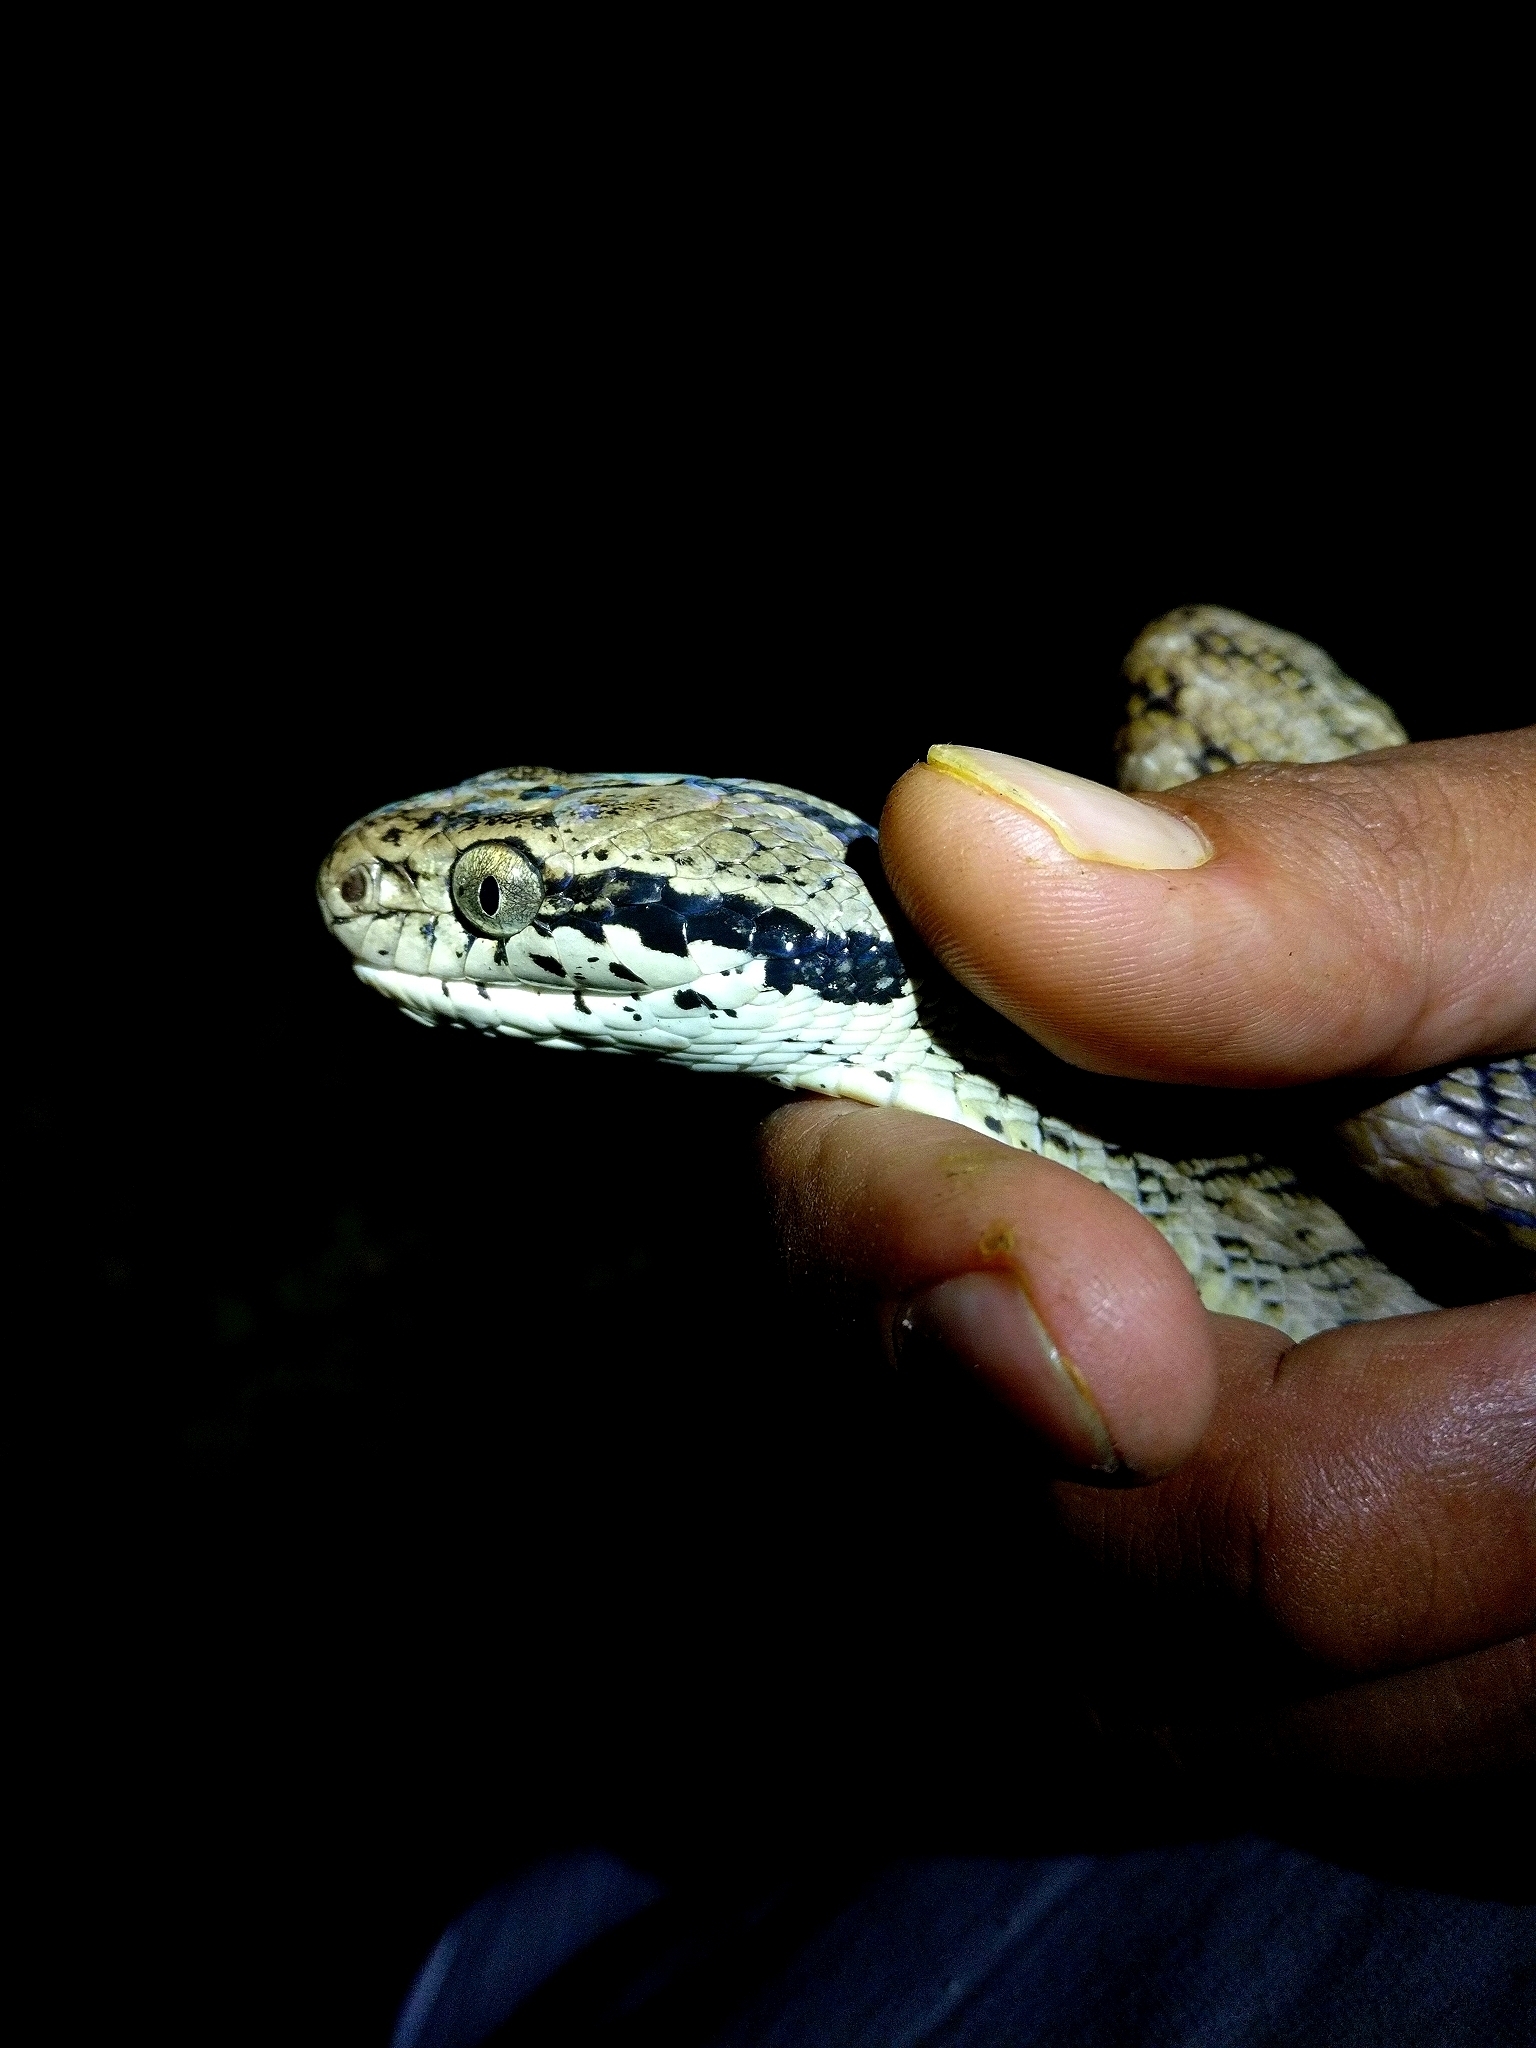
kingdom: Animalia
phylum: Chordata
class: Squamata
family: Colubridae
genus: Boiga
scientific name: Boiga forsteni
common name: Forsten's cat snake
